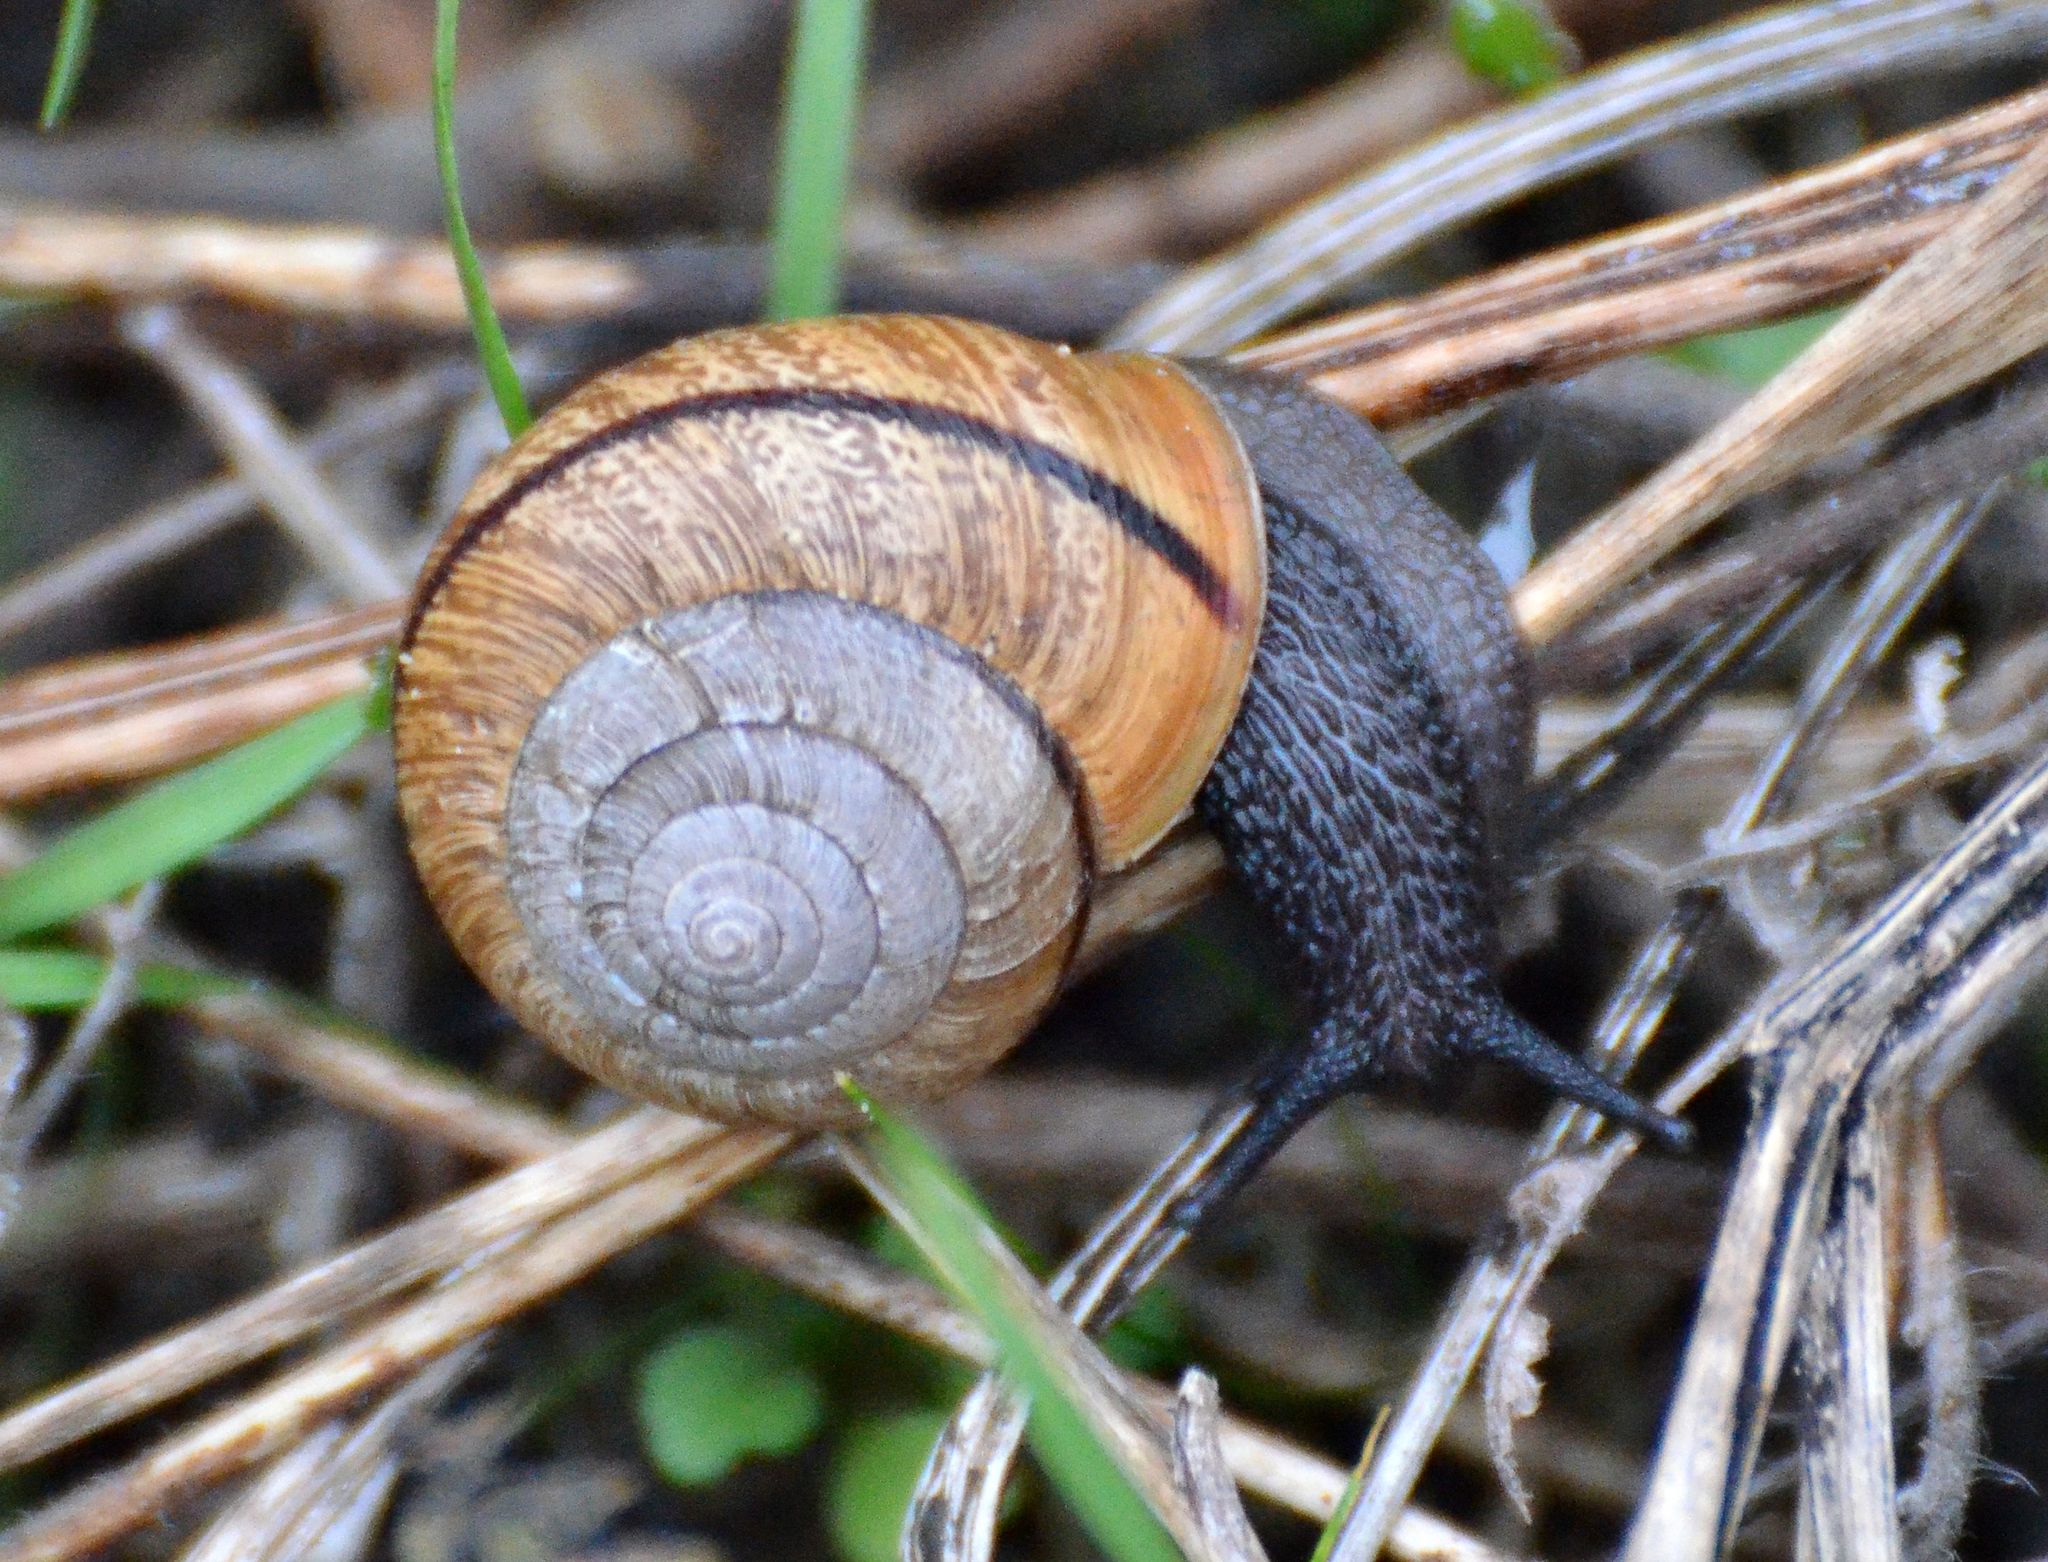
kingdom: Animalia
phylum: Mollusca
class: Gastropoda
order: Stylommatophora
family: Xanthonychidae
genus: Helminthoglypta
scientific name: Helminthoglypta arrosa
